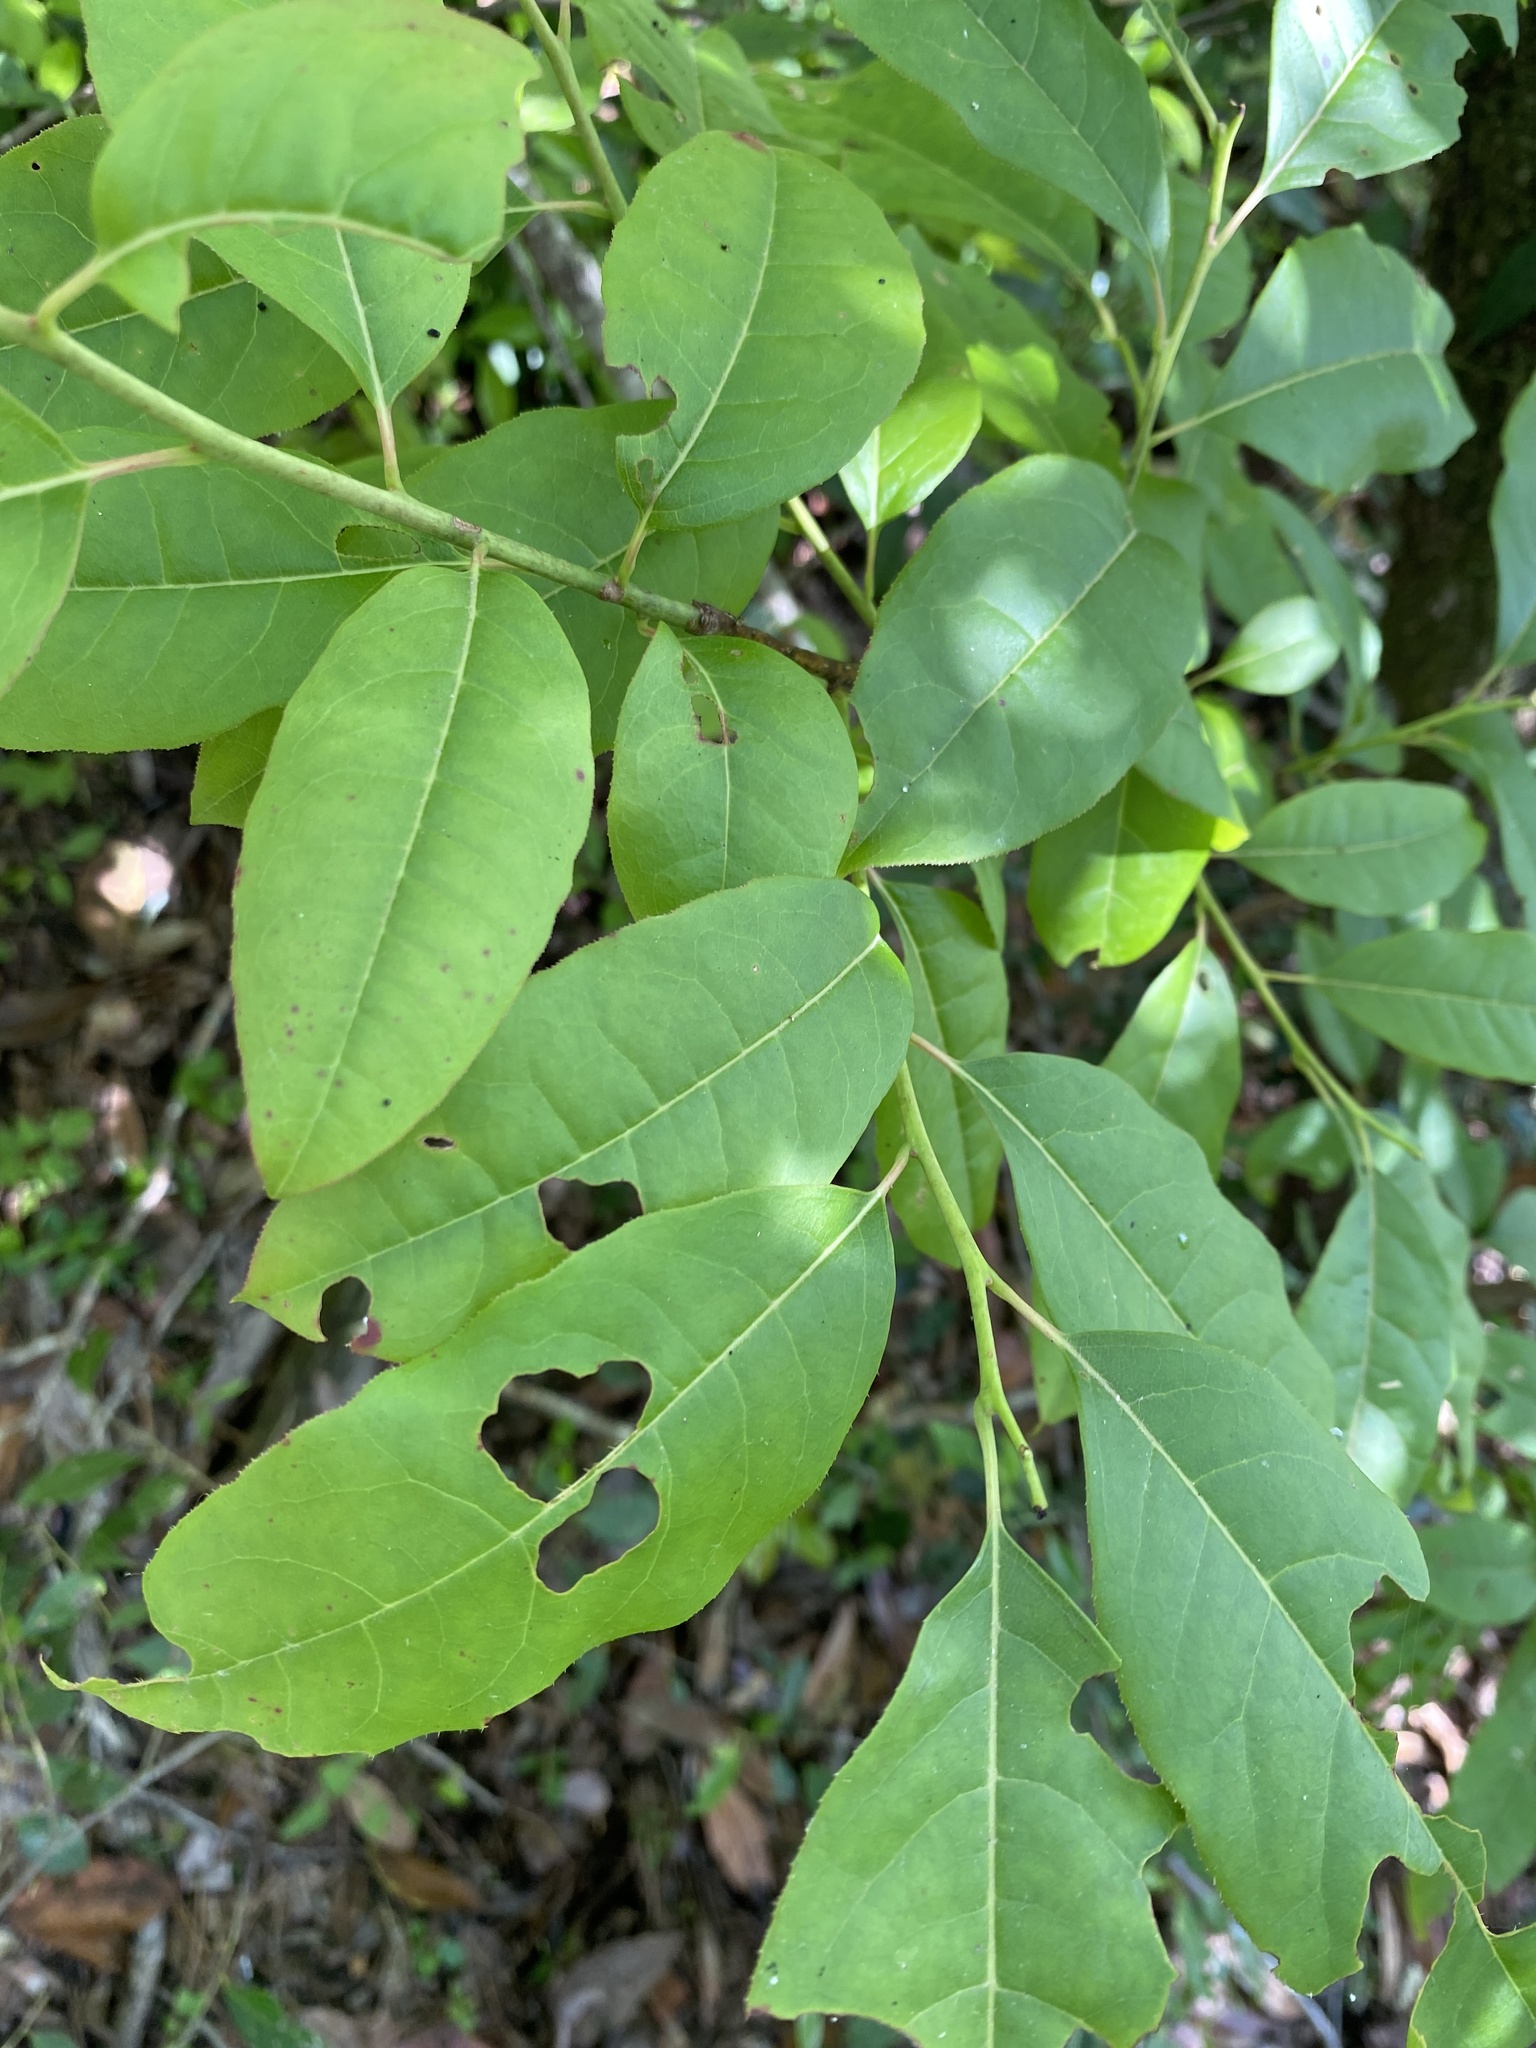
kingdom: Plantae
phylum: Tracheophyta
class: Magnoliopsida
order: Ericales
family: Ericaceae
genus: Oxydendrum
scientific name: Oxydendrum arboreum
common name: Sourwood
